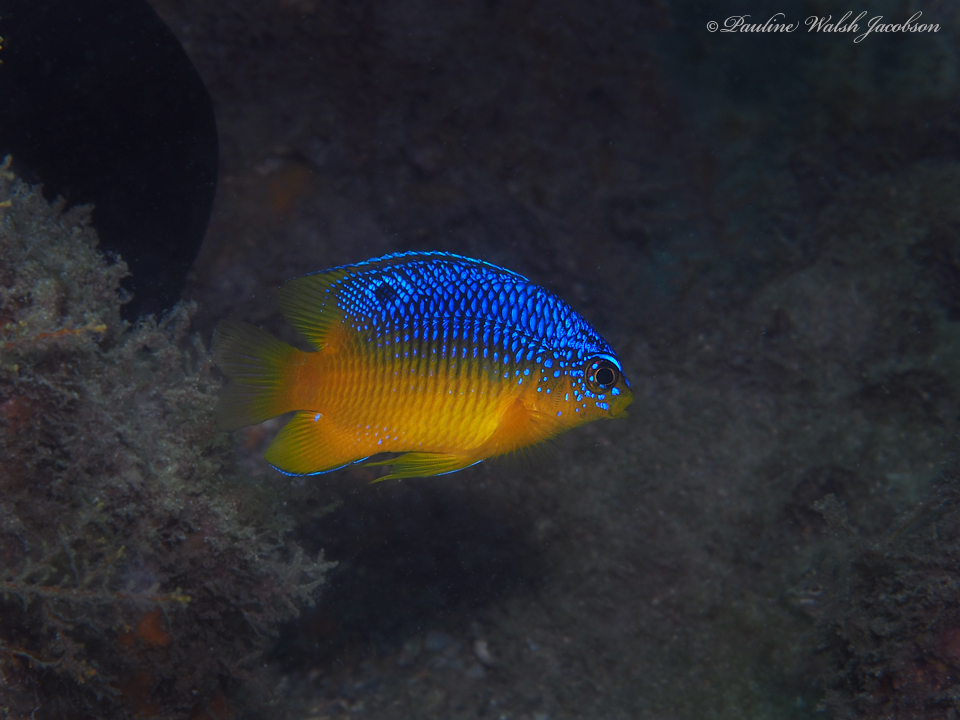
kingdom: Animalia
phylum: Chordata
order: Perciformes
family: Pomacentridae
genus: Stegastes
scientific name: Stegastes leucostictus
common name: Beaugregory
